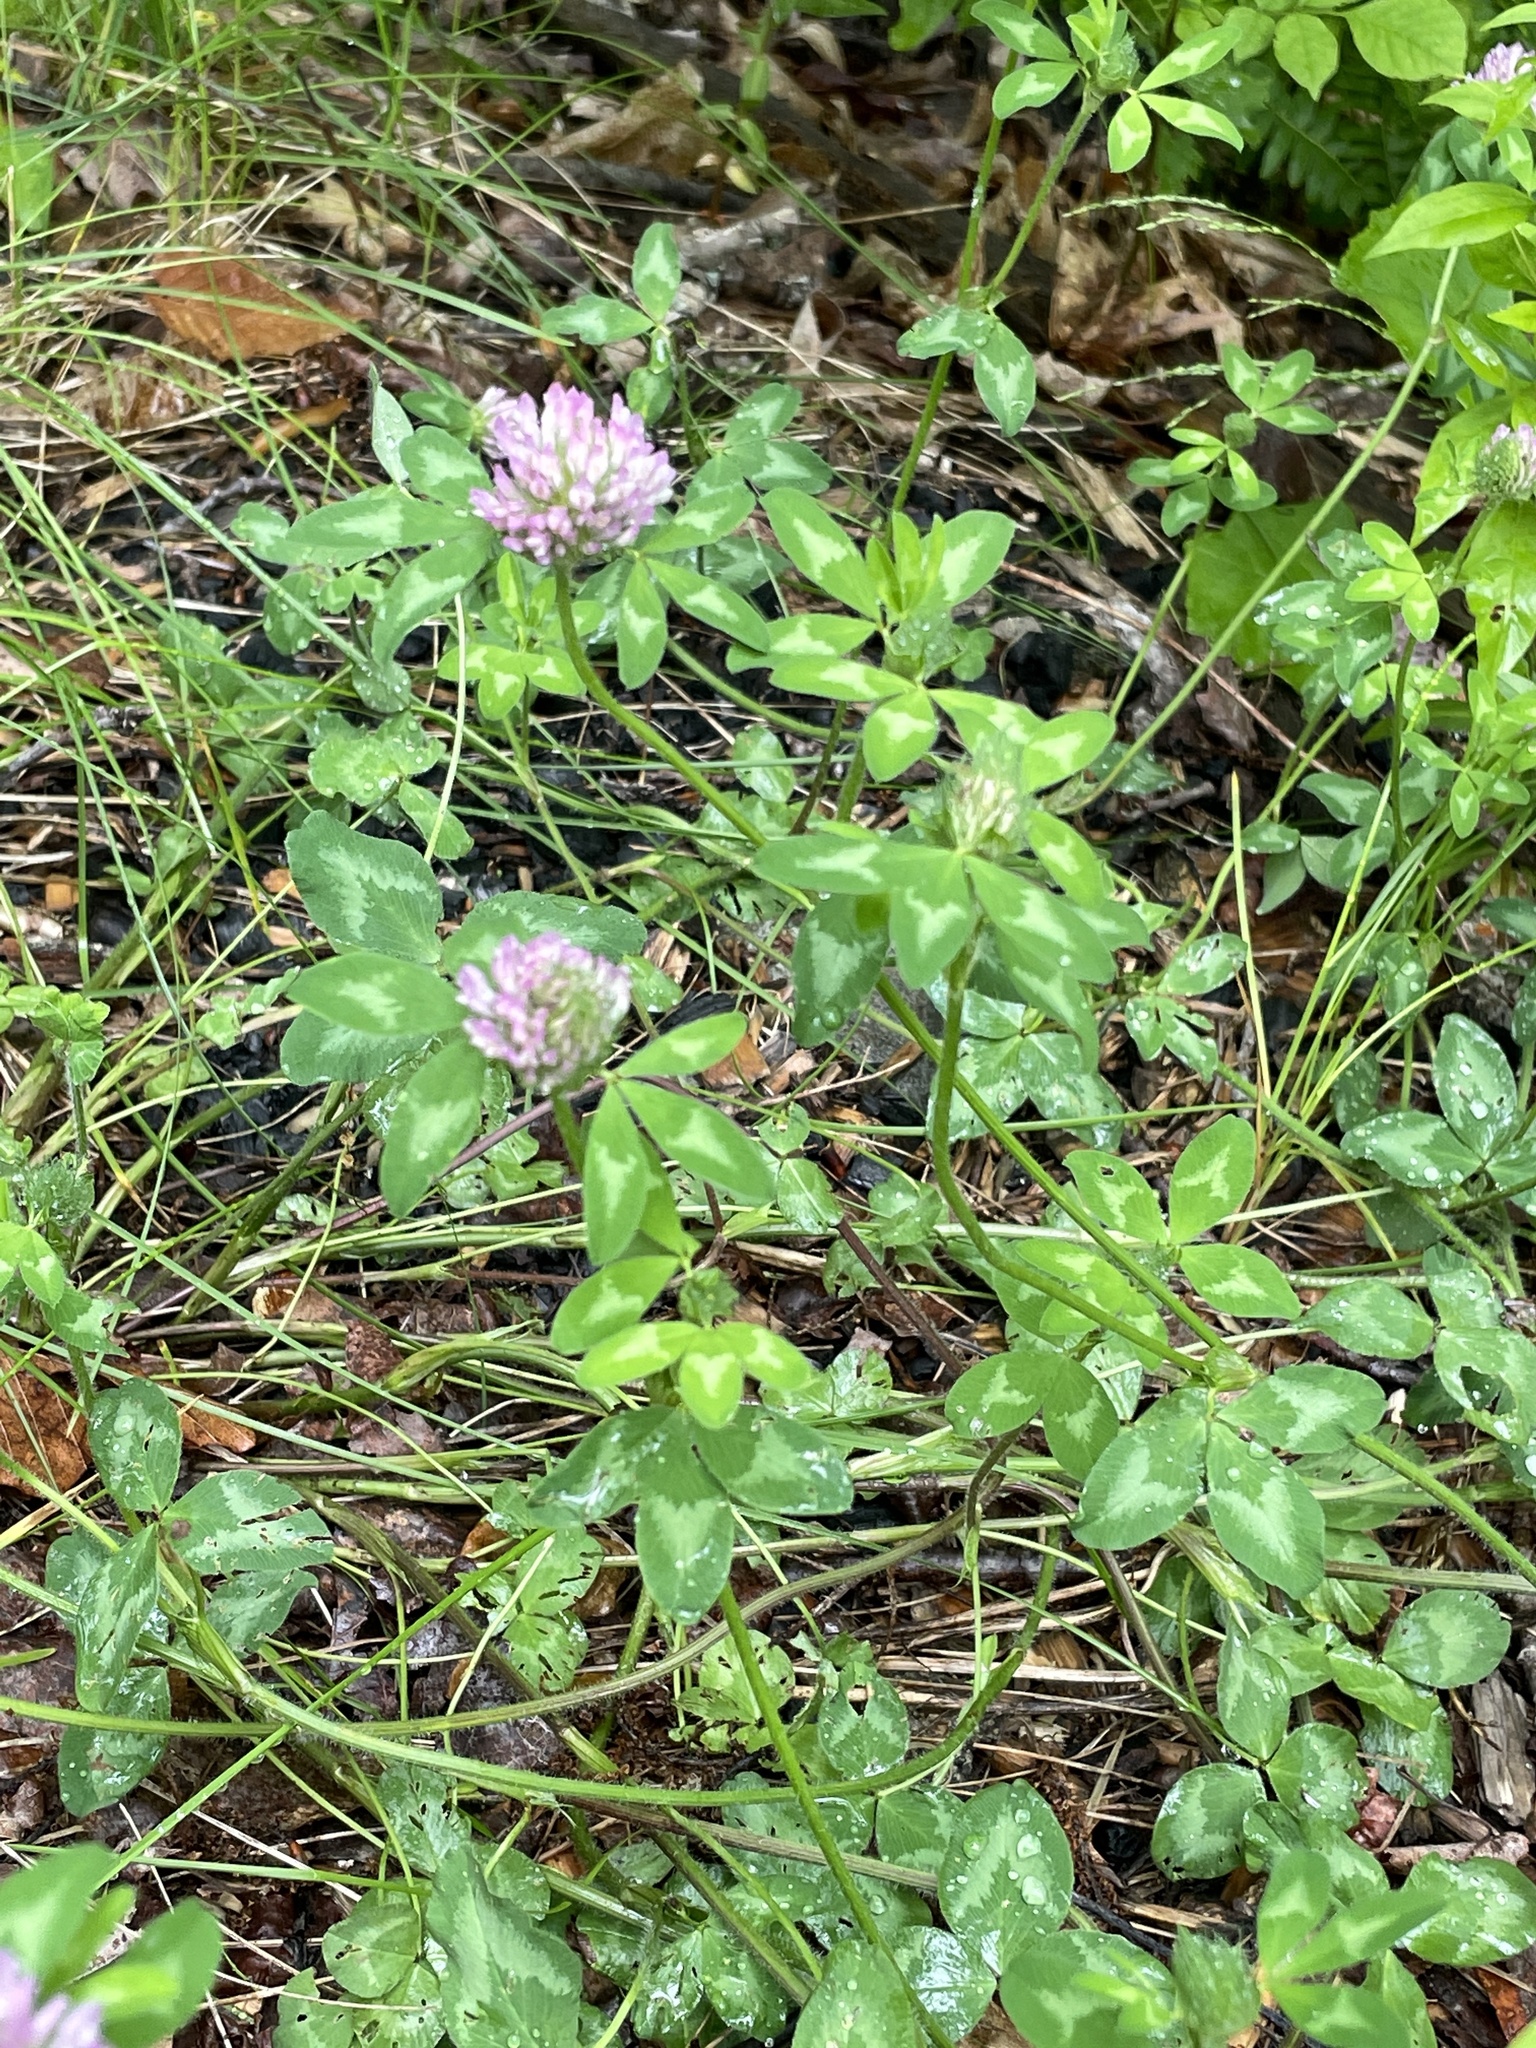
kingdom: Plantae
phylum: Tracheophyta
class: Magnoliopsida
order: Fabales
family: Fabaceae
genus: Trifolium
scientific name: Trifolium pratense
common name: Red clover
